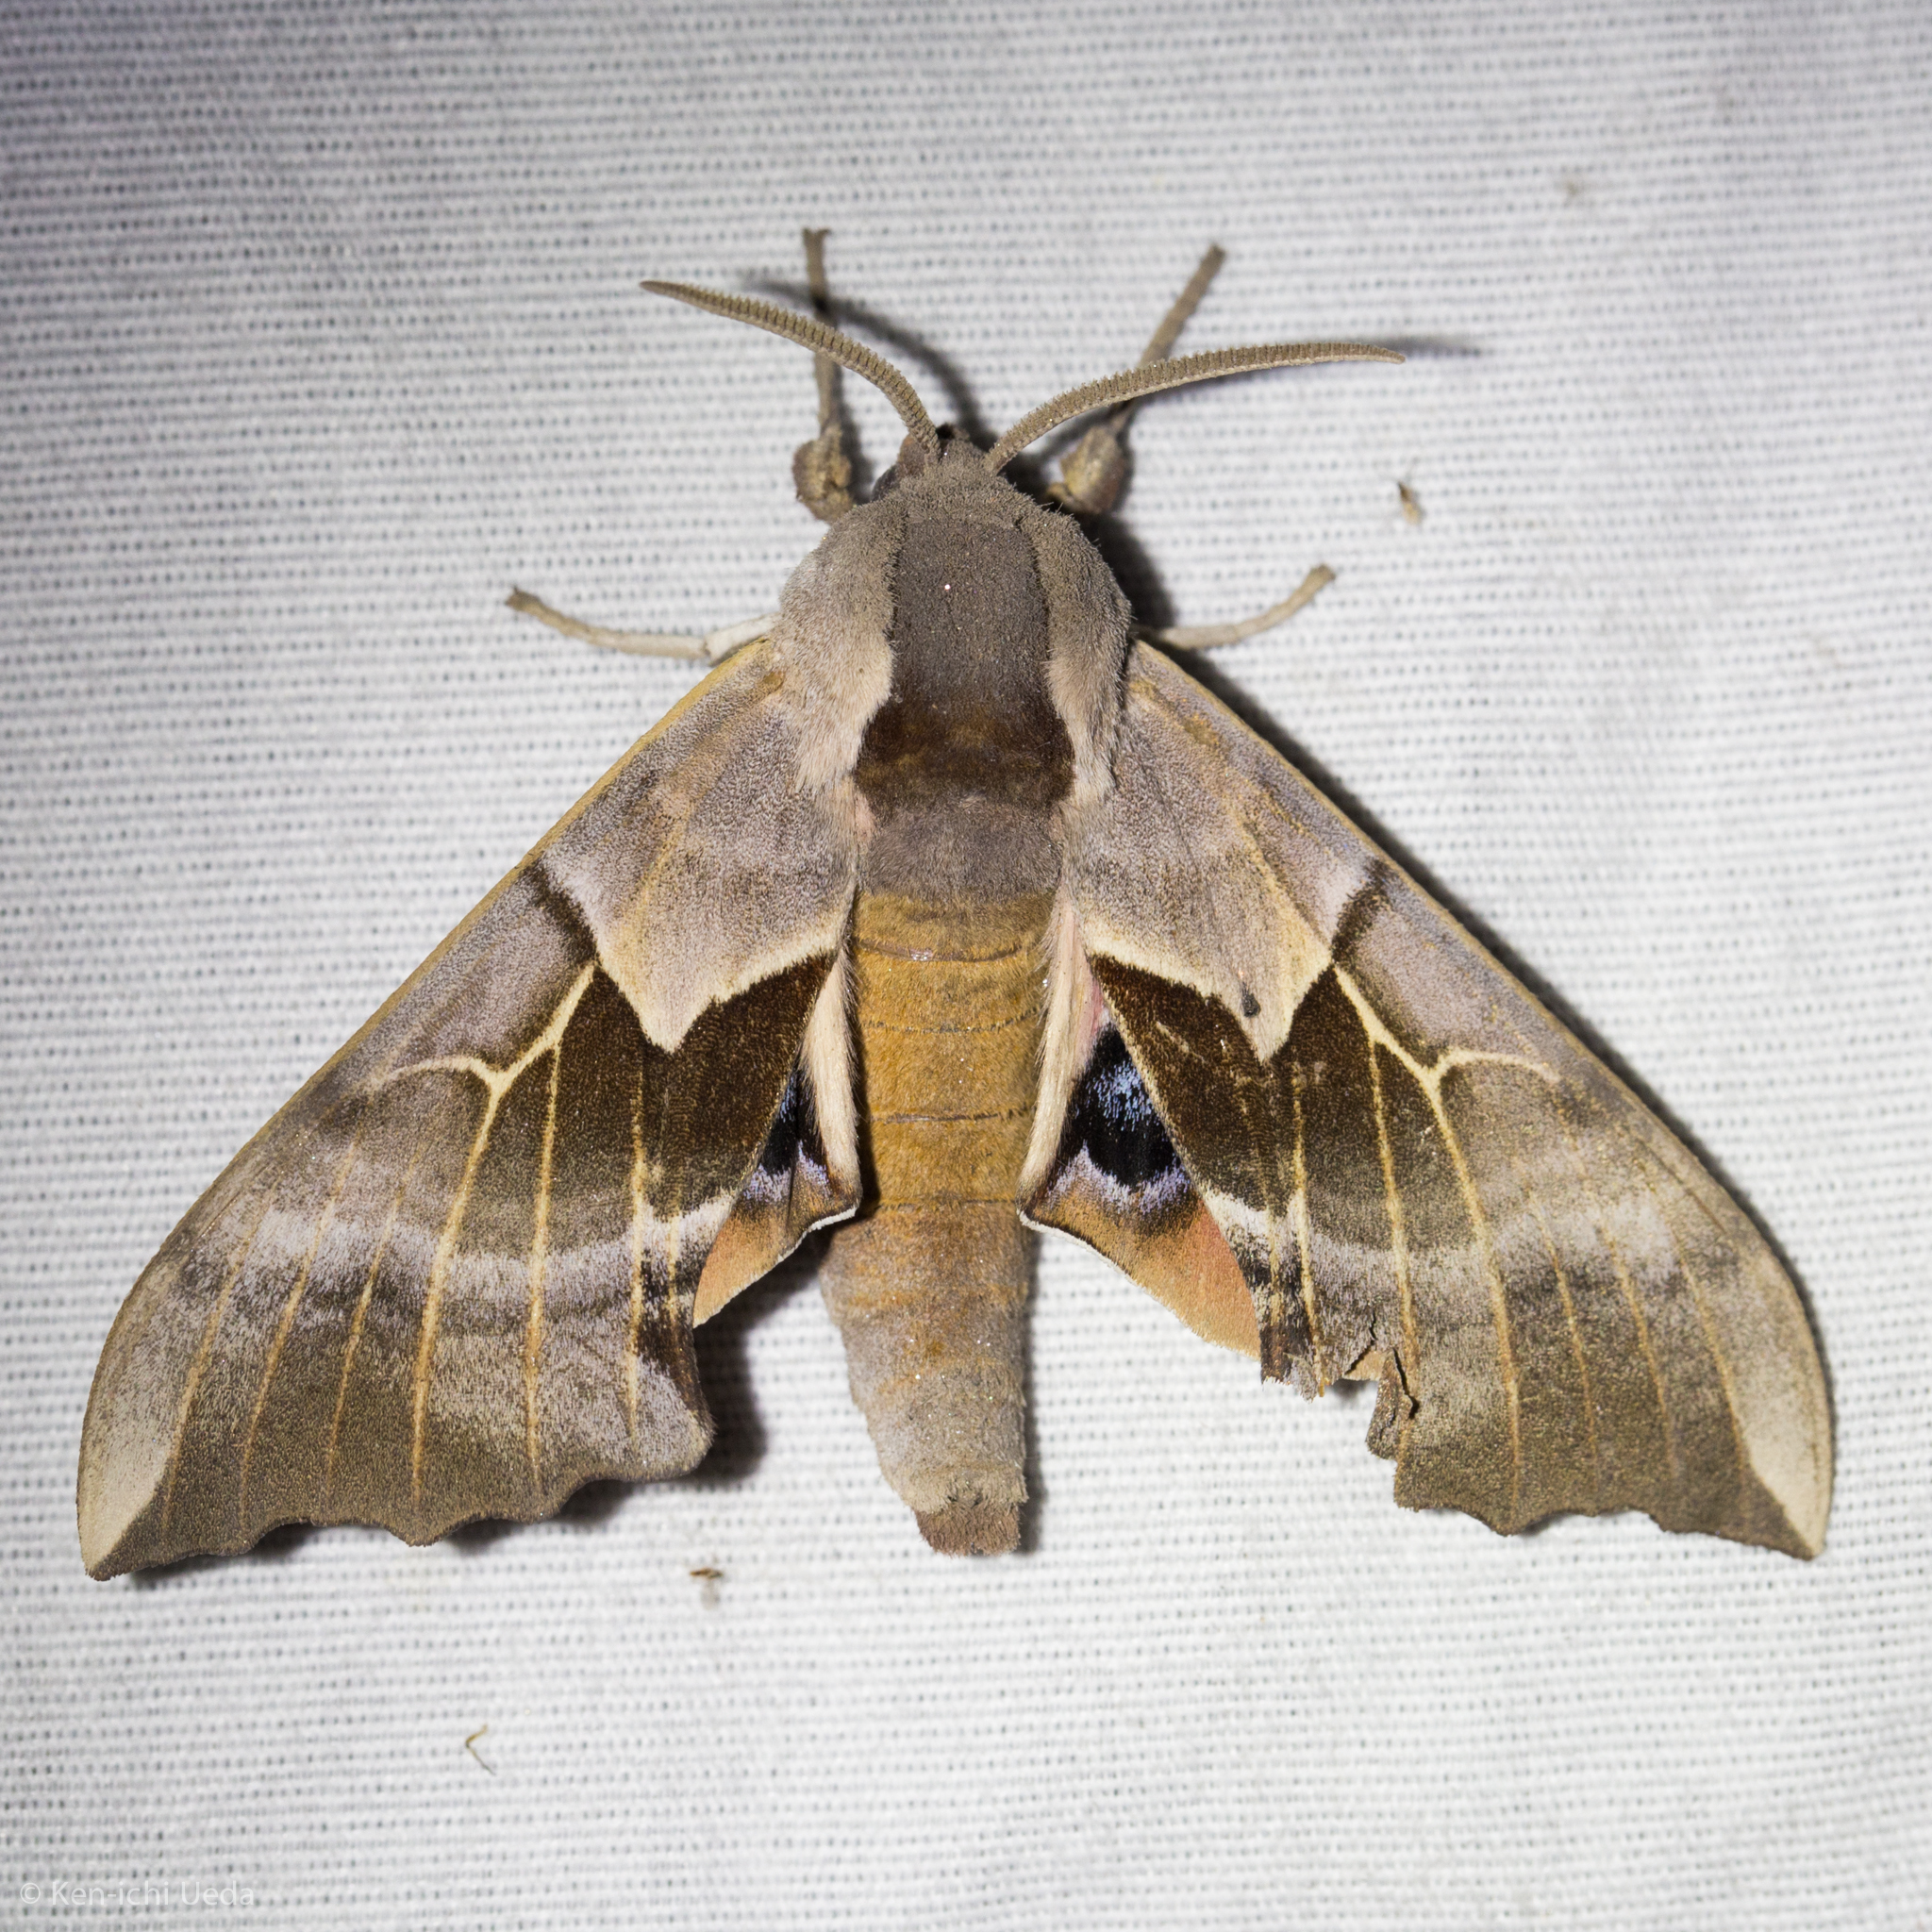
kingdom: Animalia
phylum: Arthropoda
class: Insecta
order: Lepidoptera
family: Sphingidae
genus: Smerinthus
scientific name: Smerinthus saliceti
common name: Salicet sphinx
